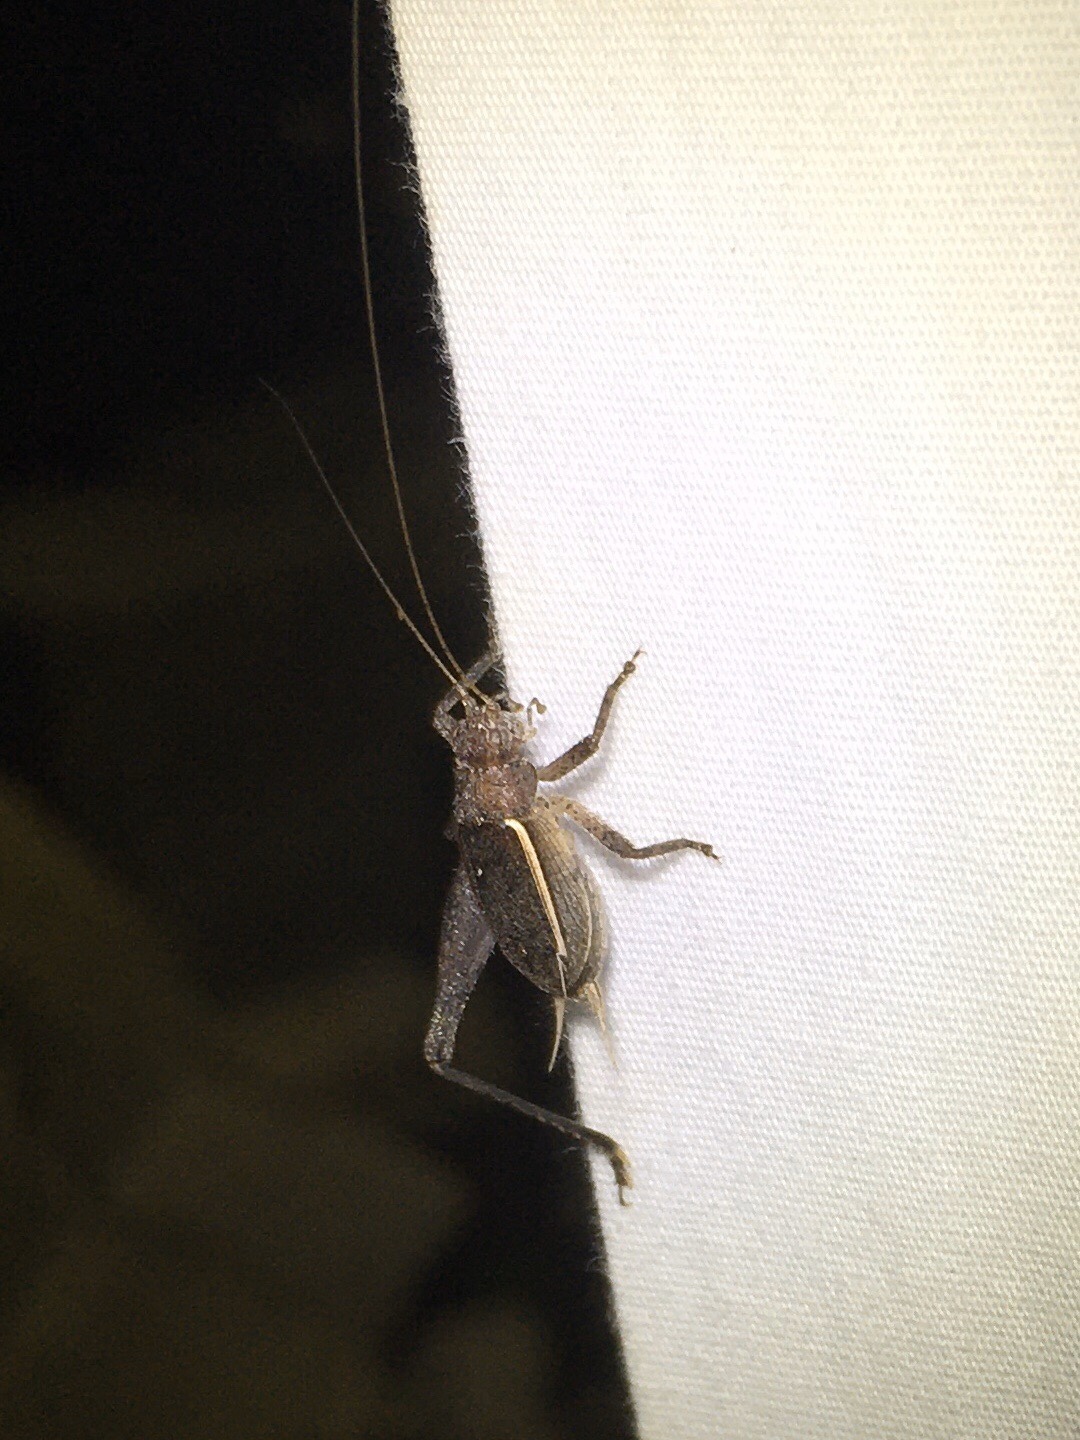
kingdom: Animalia
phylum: Arthropoda
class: Insecta
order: Orthoptera
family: Gryllidae
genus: Hapithus
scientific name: Hapithus agitator
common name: Restless bush cricket
